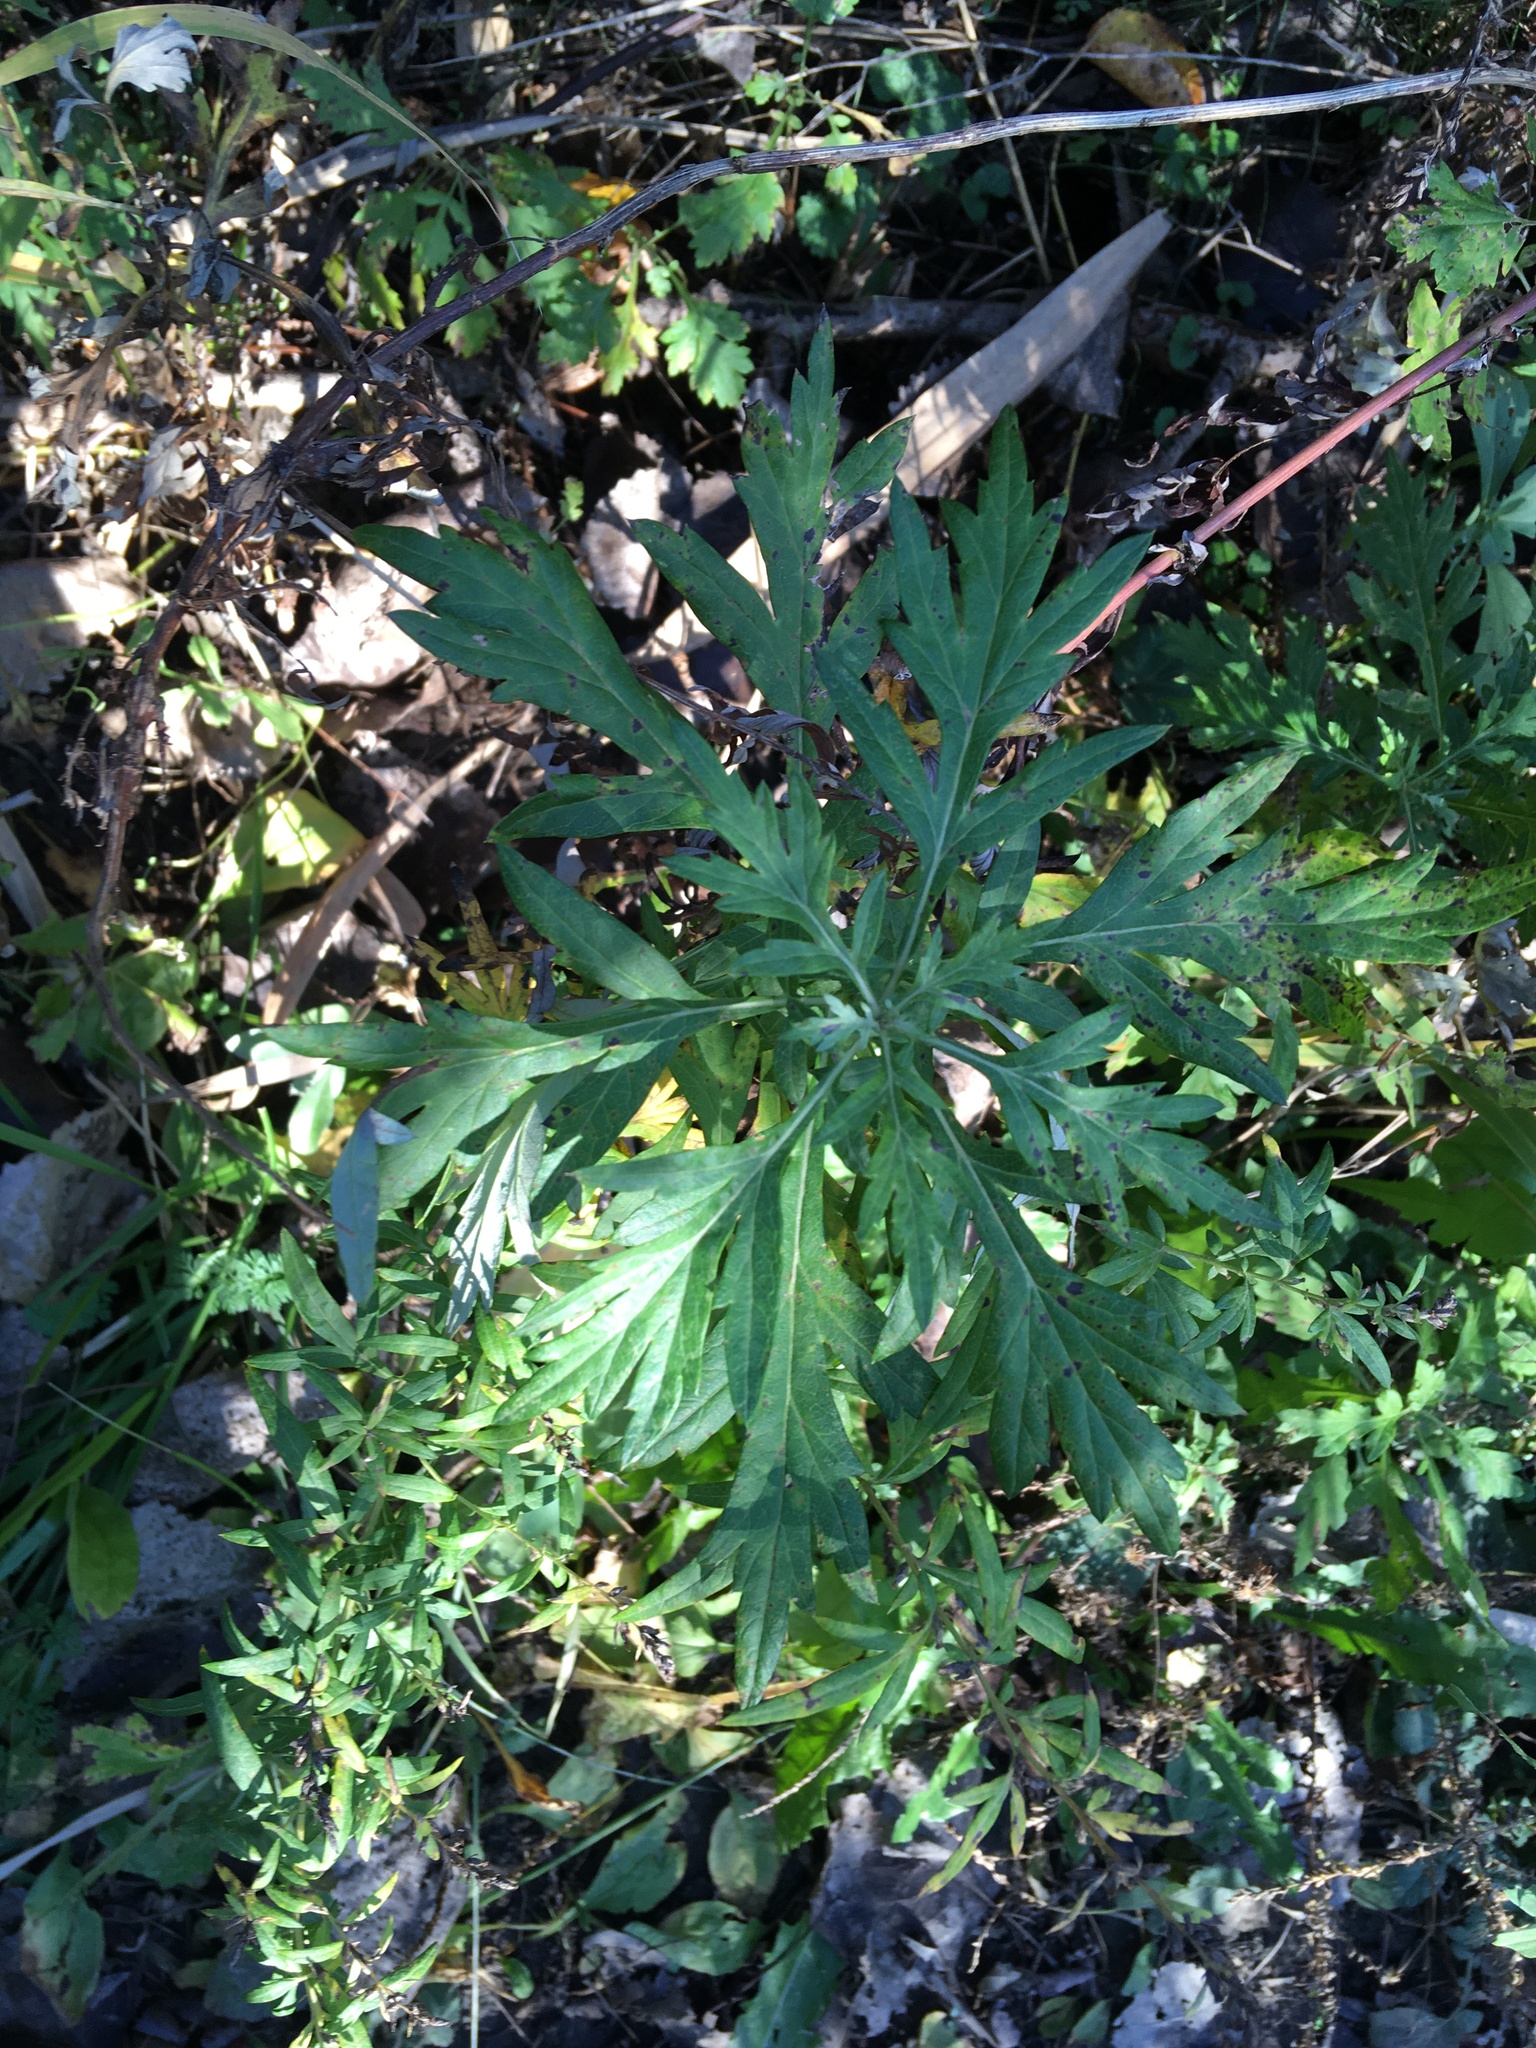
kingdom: Plantae
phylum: Tracheophyta
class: Magnoliopsida
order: Asterales
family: Asteraceae
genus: Artemisia
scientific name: Artemisia vulgaris
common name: Mugwort
